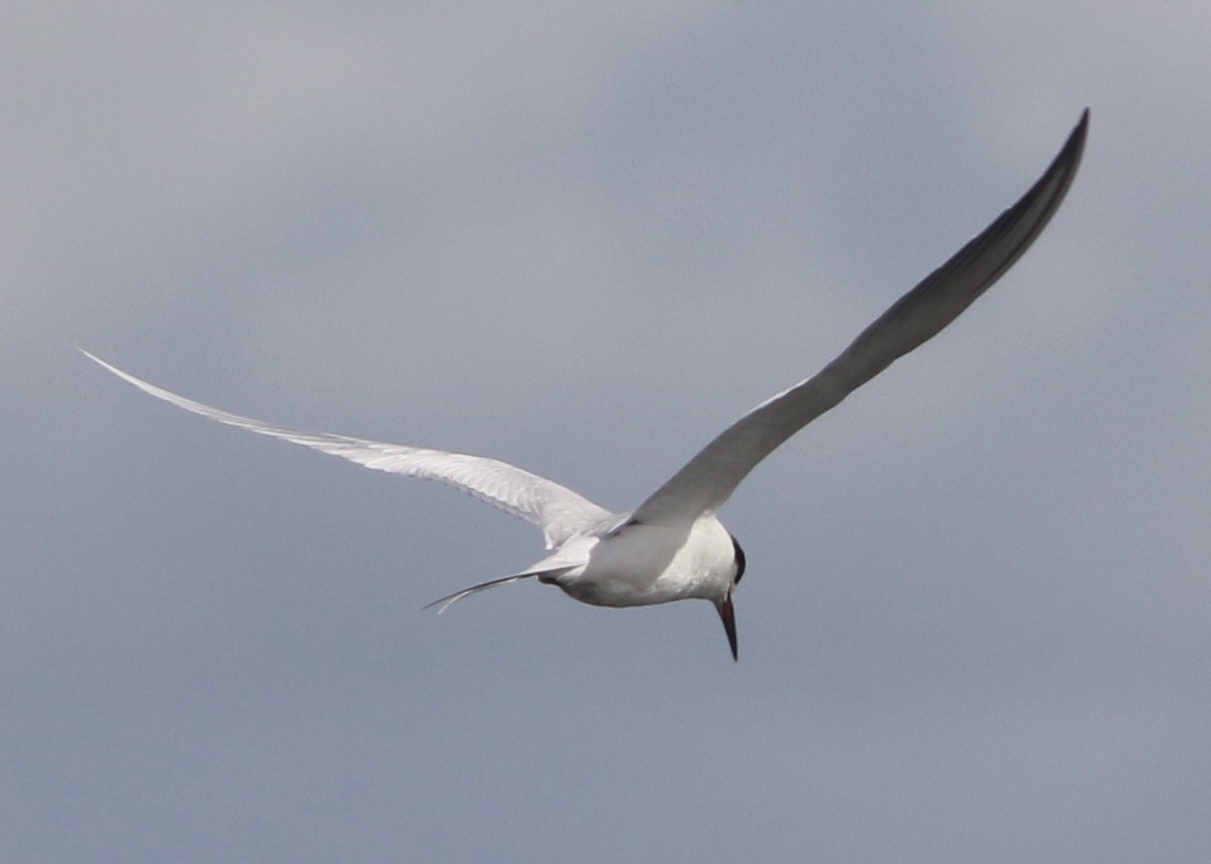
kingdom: Animalia
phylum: Chordata
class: Aves
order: Charadriiformes
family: Laridae
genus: Sterna
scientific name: Sterna forsteri
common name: Forster's tern
